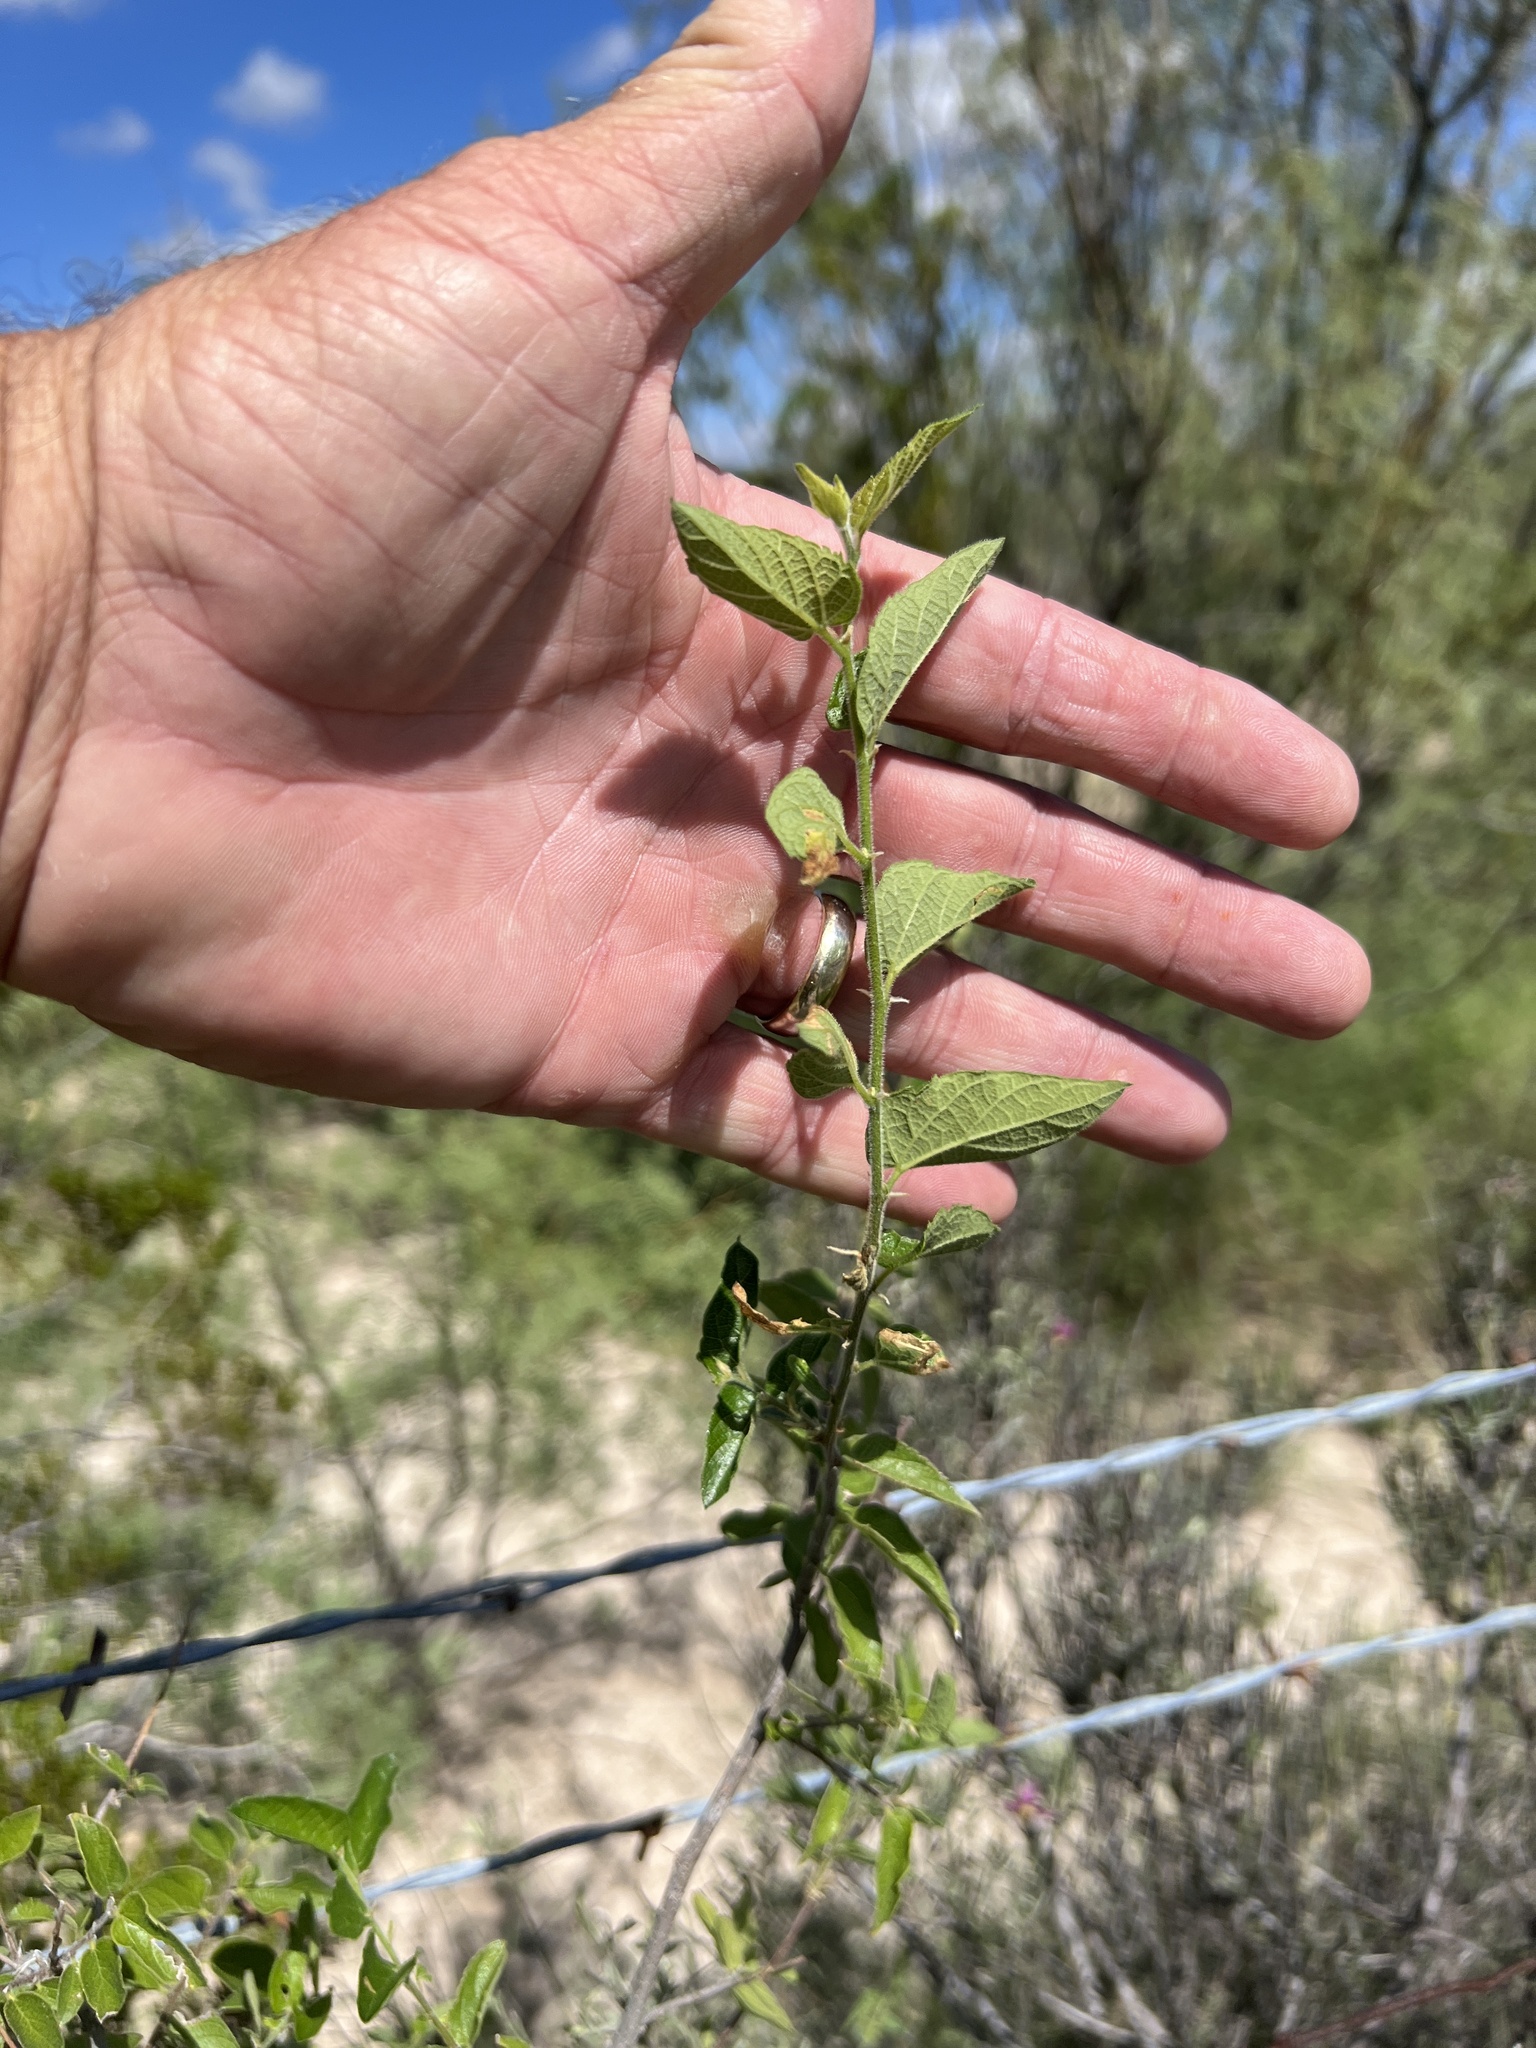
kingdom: Plantae
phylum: Tracheophyta
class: Magnoliopsida
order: Rosales
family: Cannabaceae
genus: Celtis
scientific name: Celtis reticulata
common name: Netleaf hackberry
